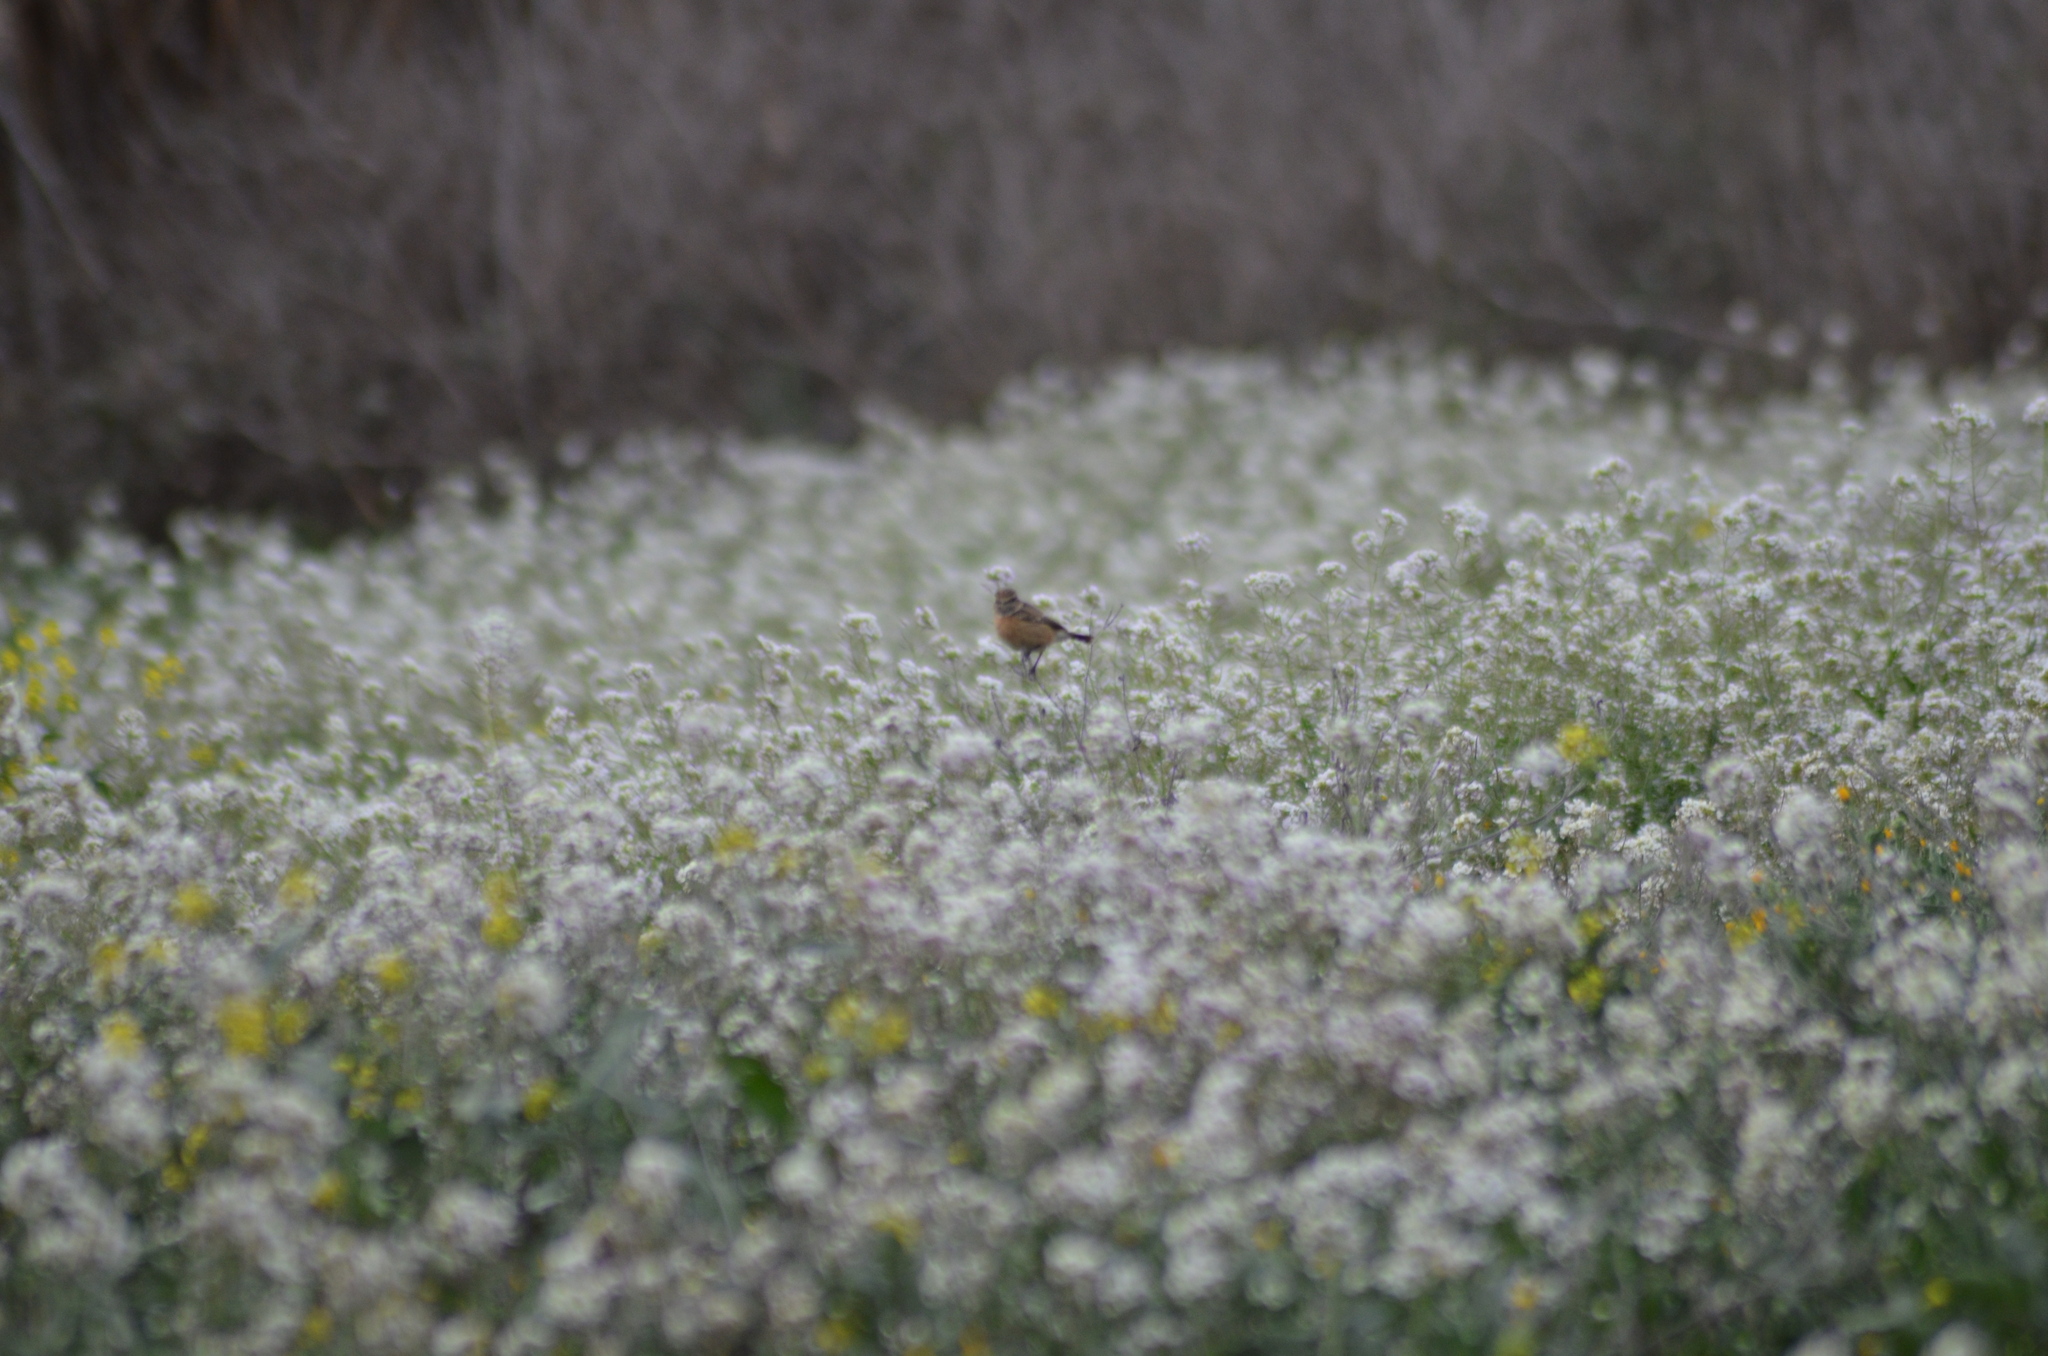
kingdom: Animalia
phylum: Chordata
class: Aves
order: Passeriformes
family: Muscicapidae
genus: Saxicola
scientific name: Saxicola rubicola
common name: European stonechat
